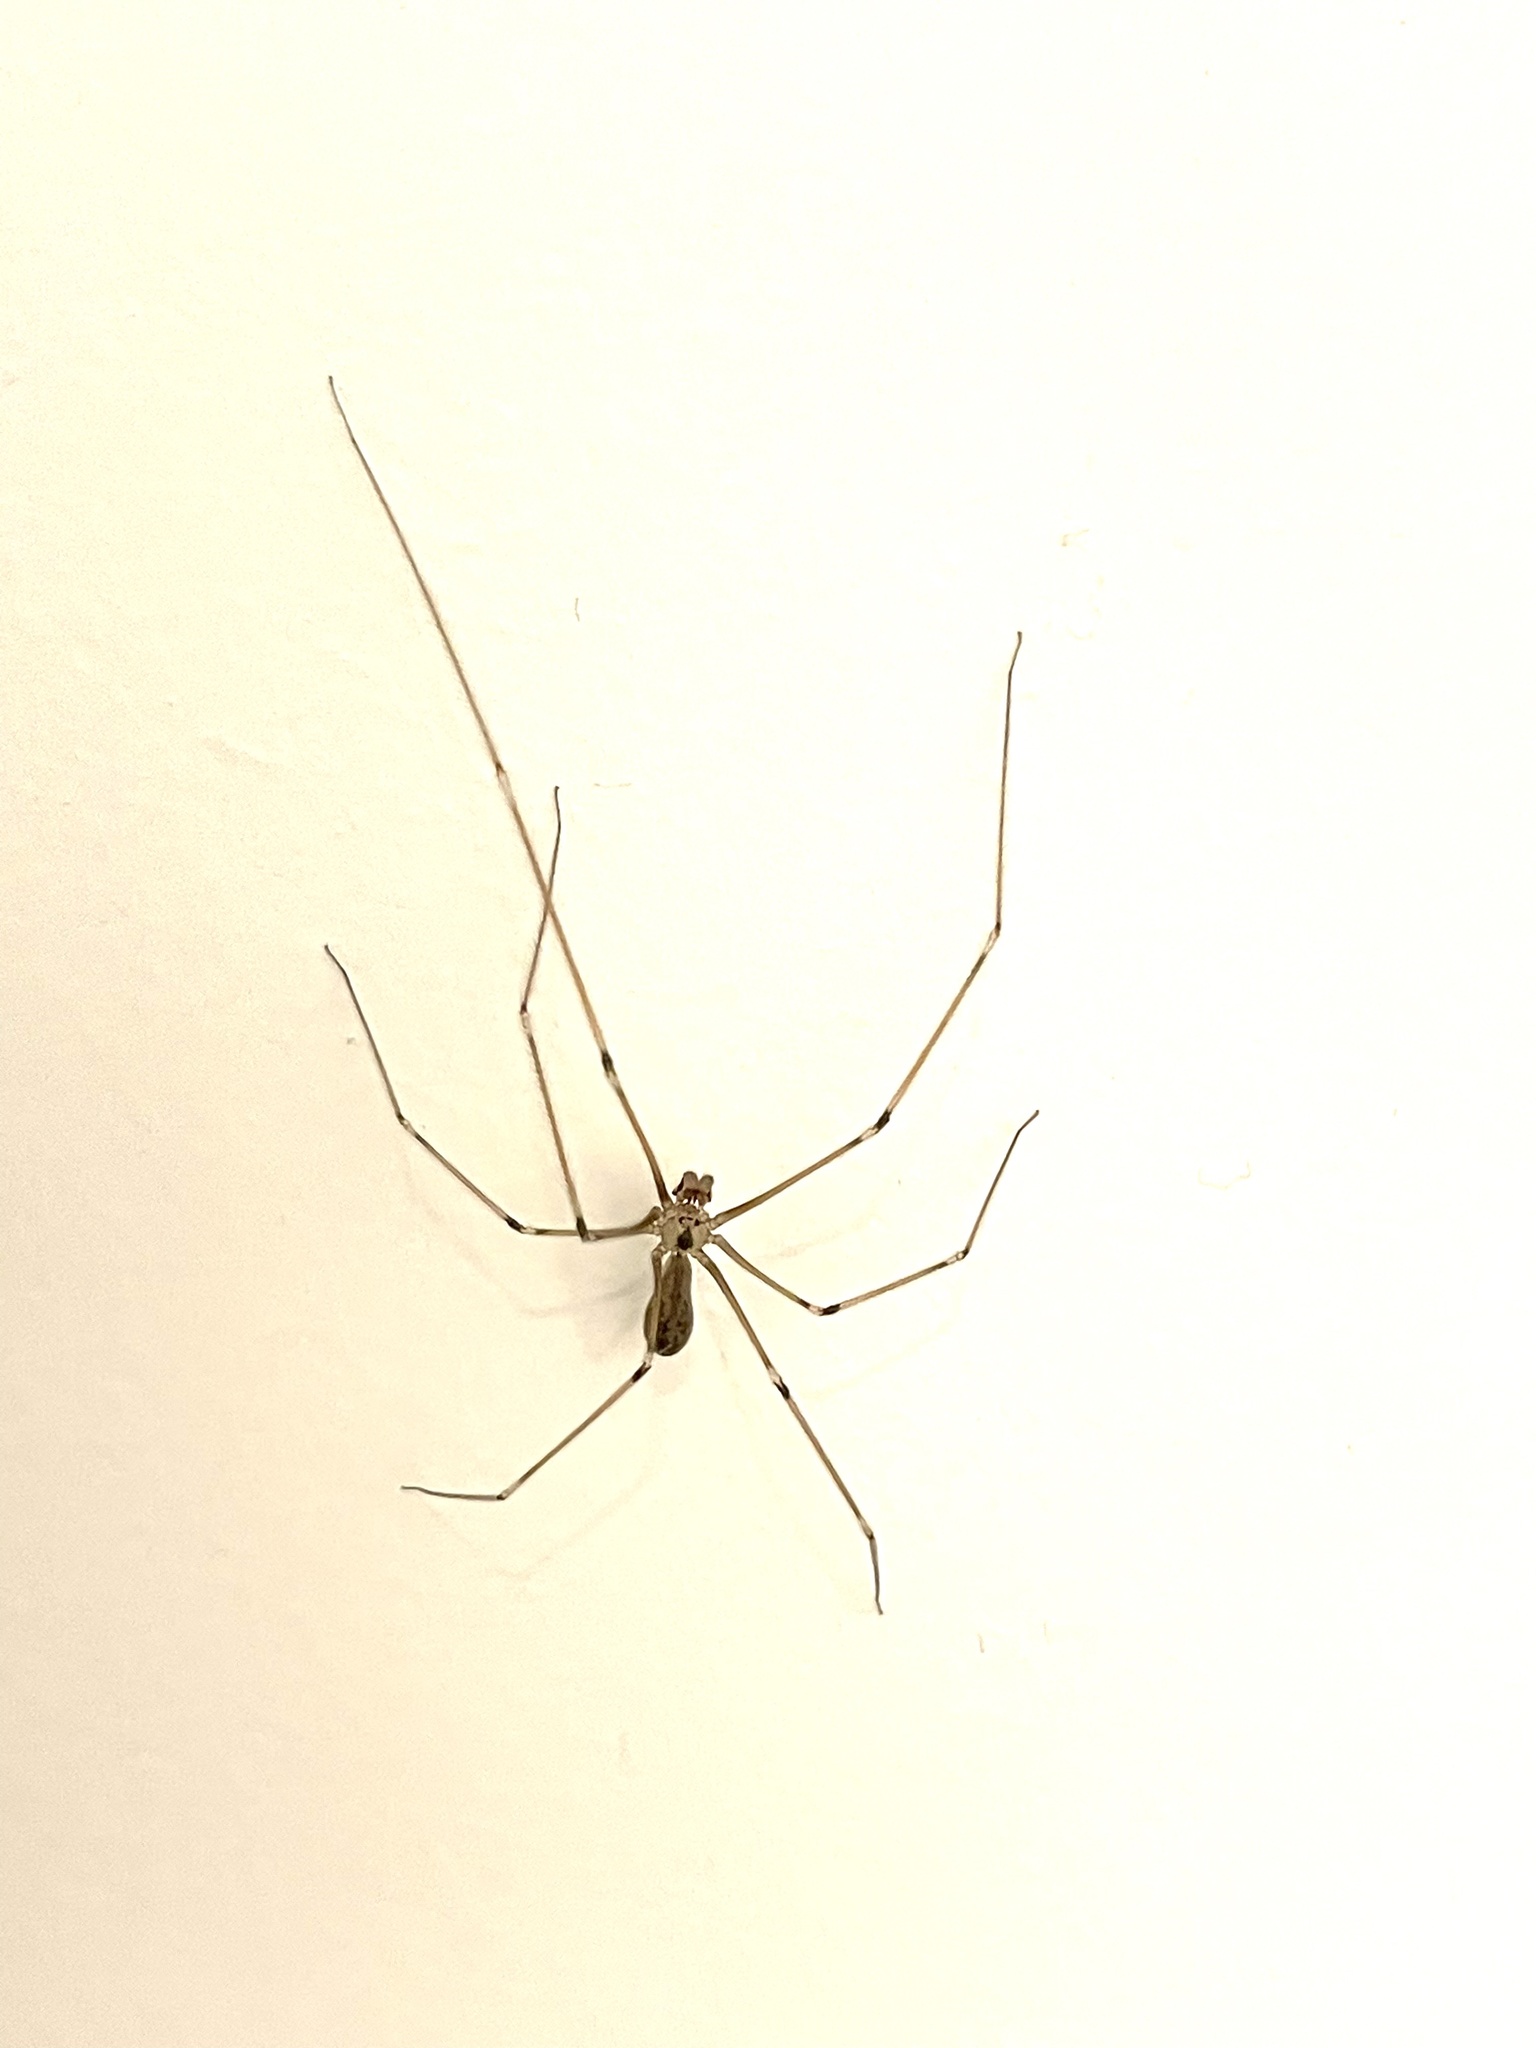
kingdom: Animalia
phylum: Arthropoda
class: Arachnida
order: Araneae
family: Pholcidae
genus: Pholcus
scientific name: Pholcus phalangioides
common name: Longbodied cellar spider
